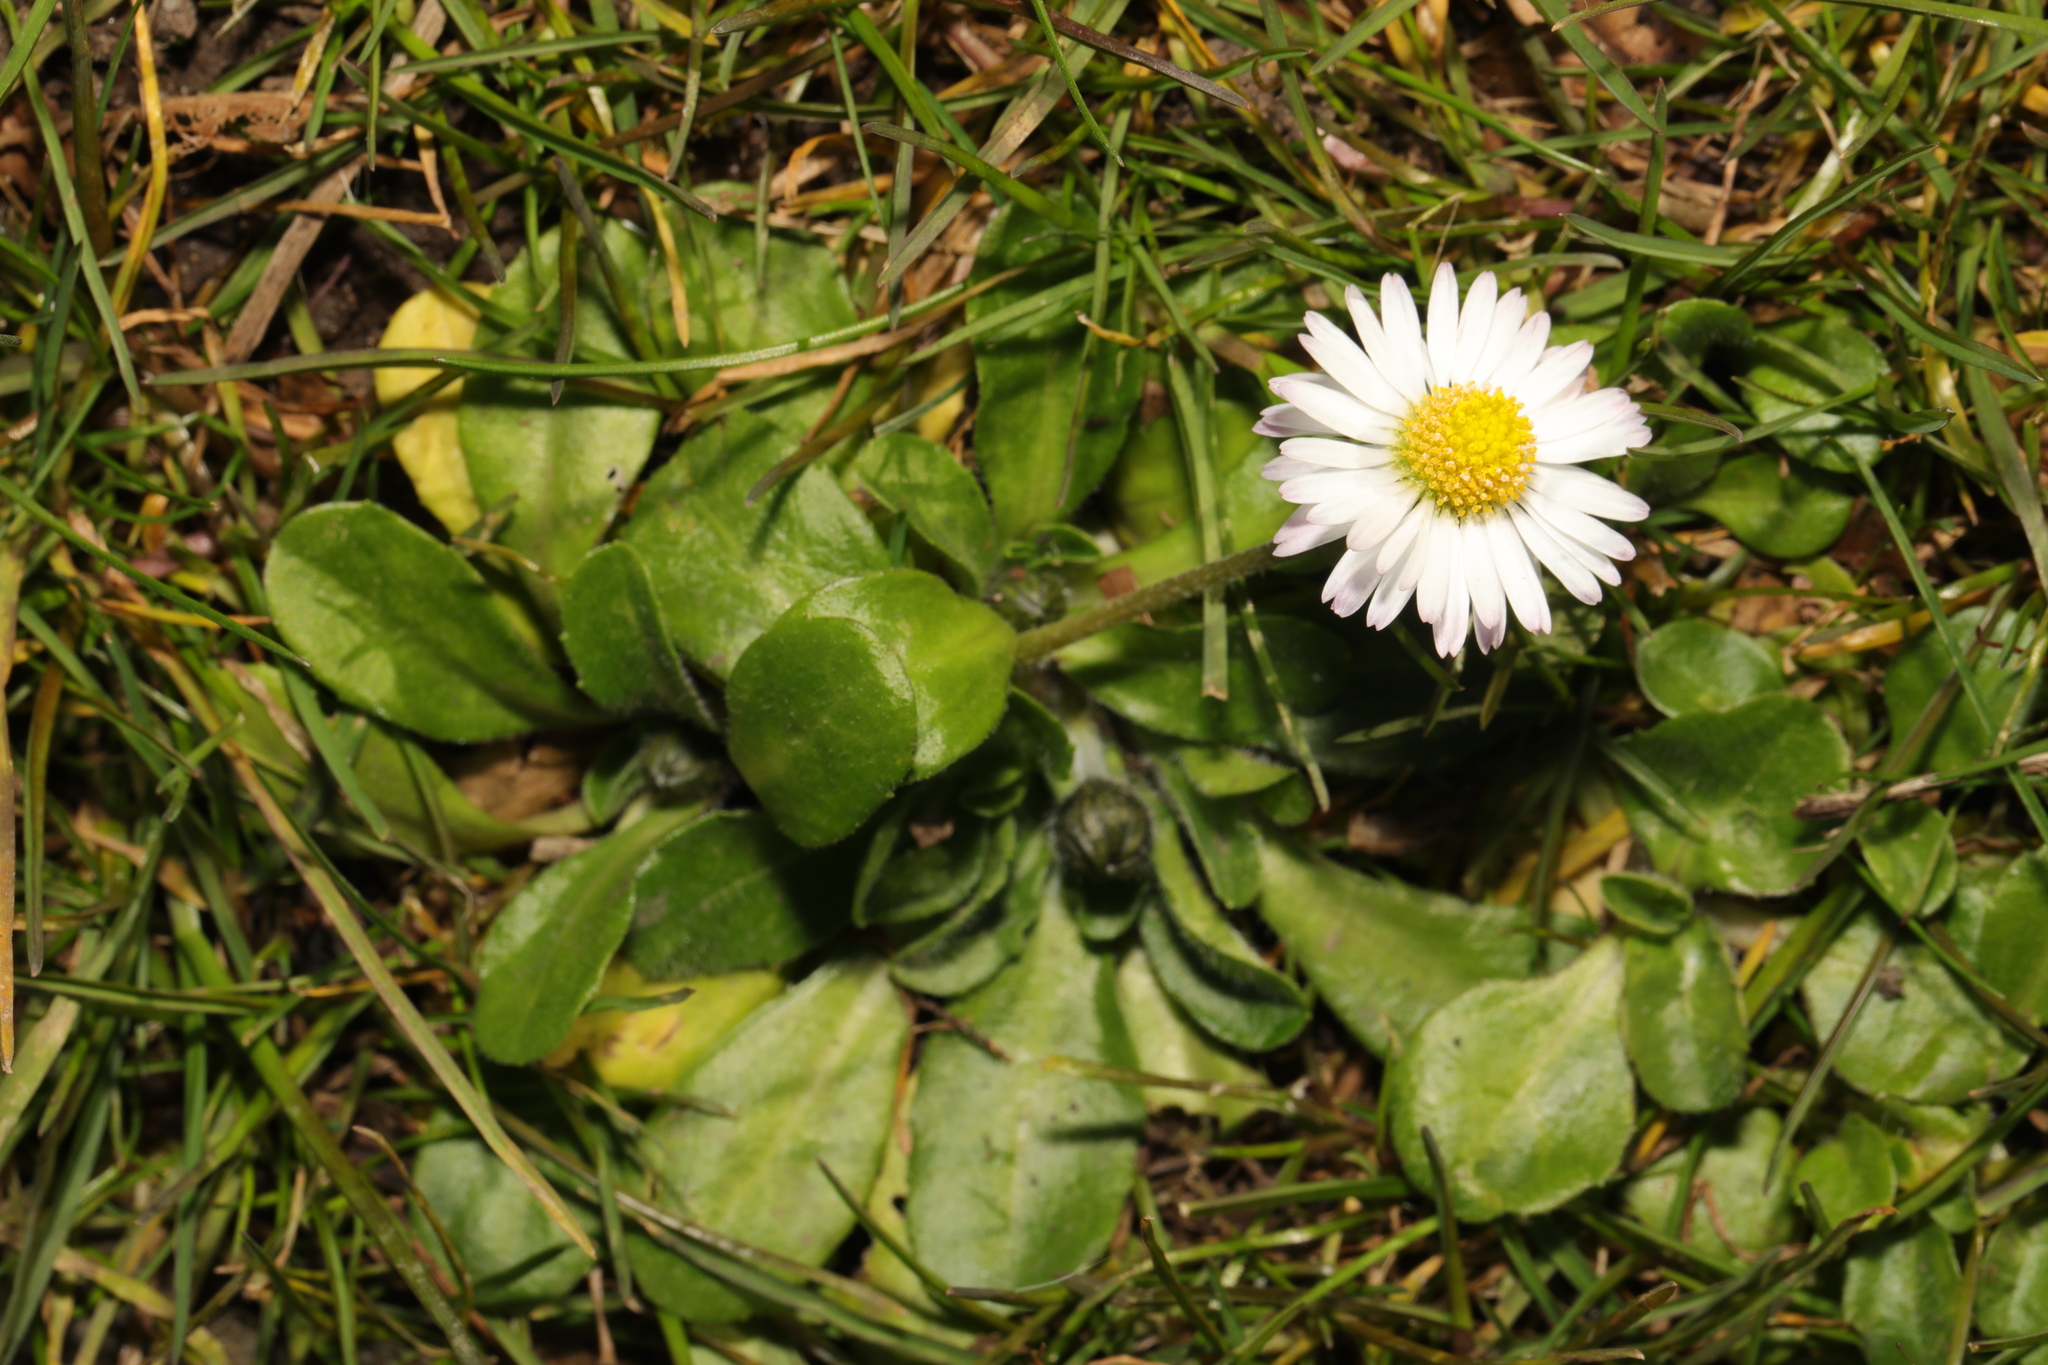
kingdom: Plantae
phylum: Tracheophyta
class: Magnoliopsida
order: Asterales
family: Asteraceae
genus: Bellis
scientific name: Bellis perennis
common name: Lawndaisy
